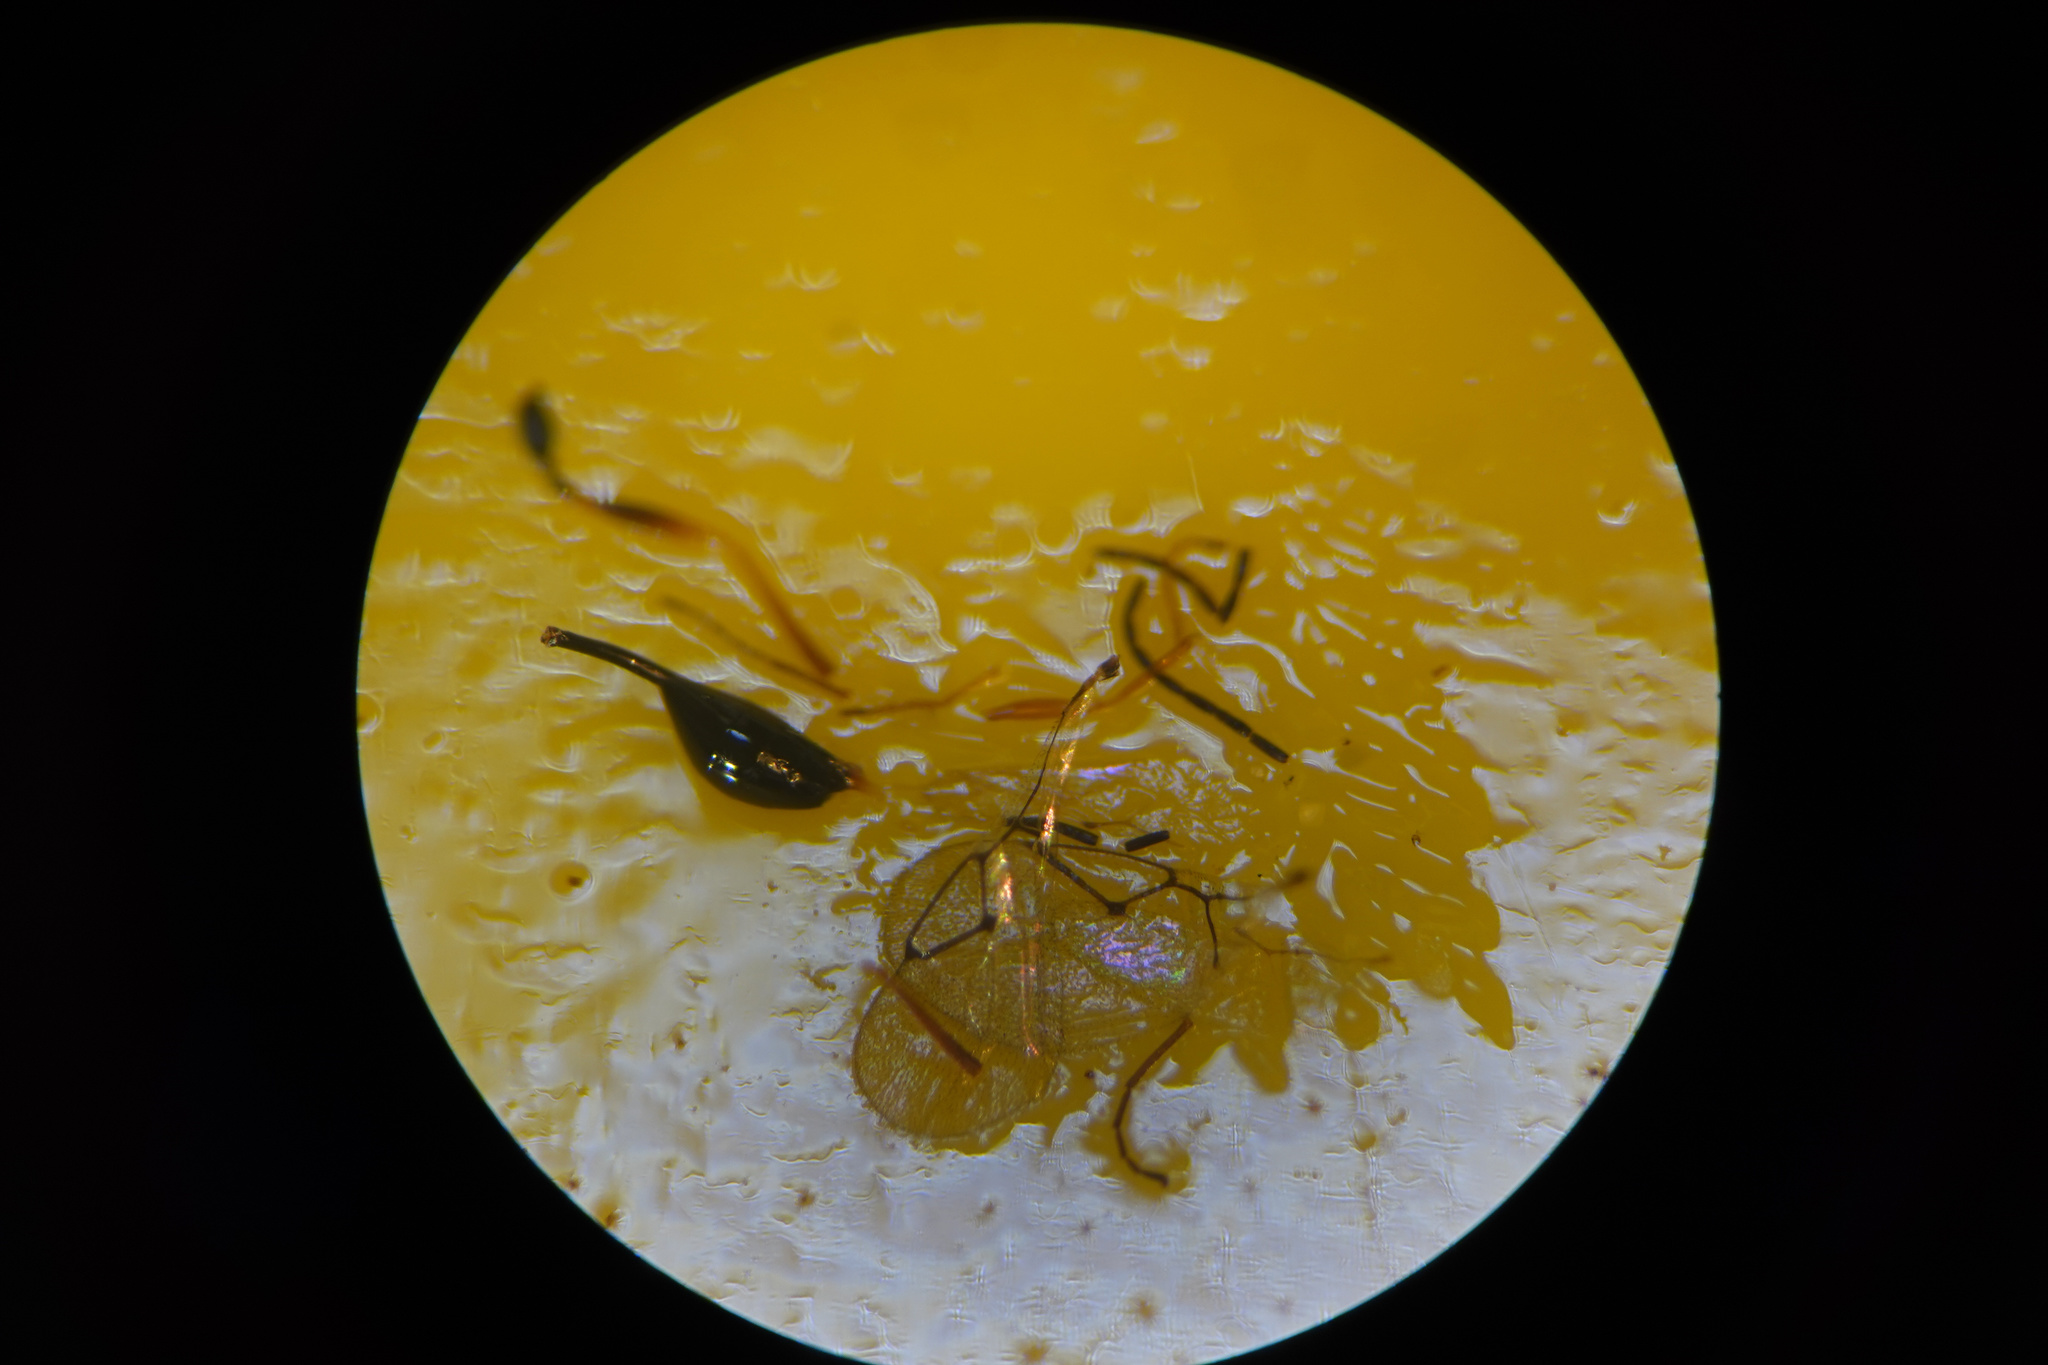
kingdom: Animalia
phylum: Arthropoda
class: Insecta
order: Hymenoptera
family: Figitidae
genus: Anacharis
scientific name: Anacharis zealandica
